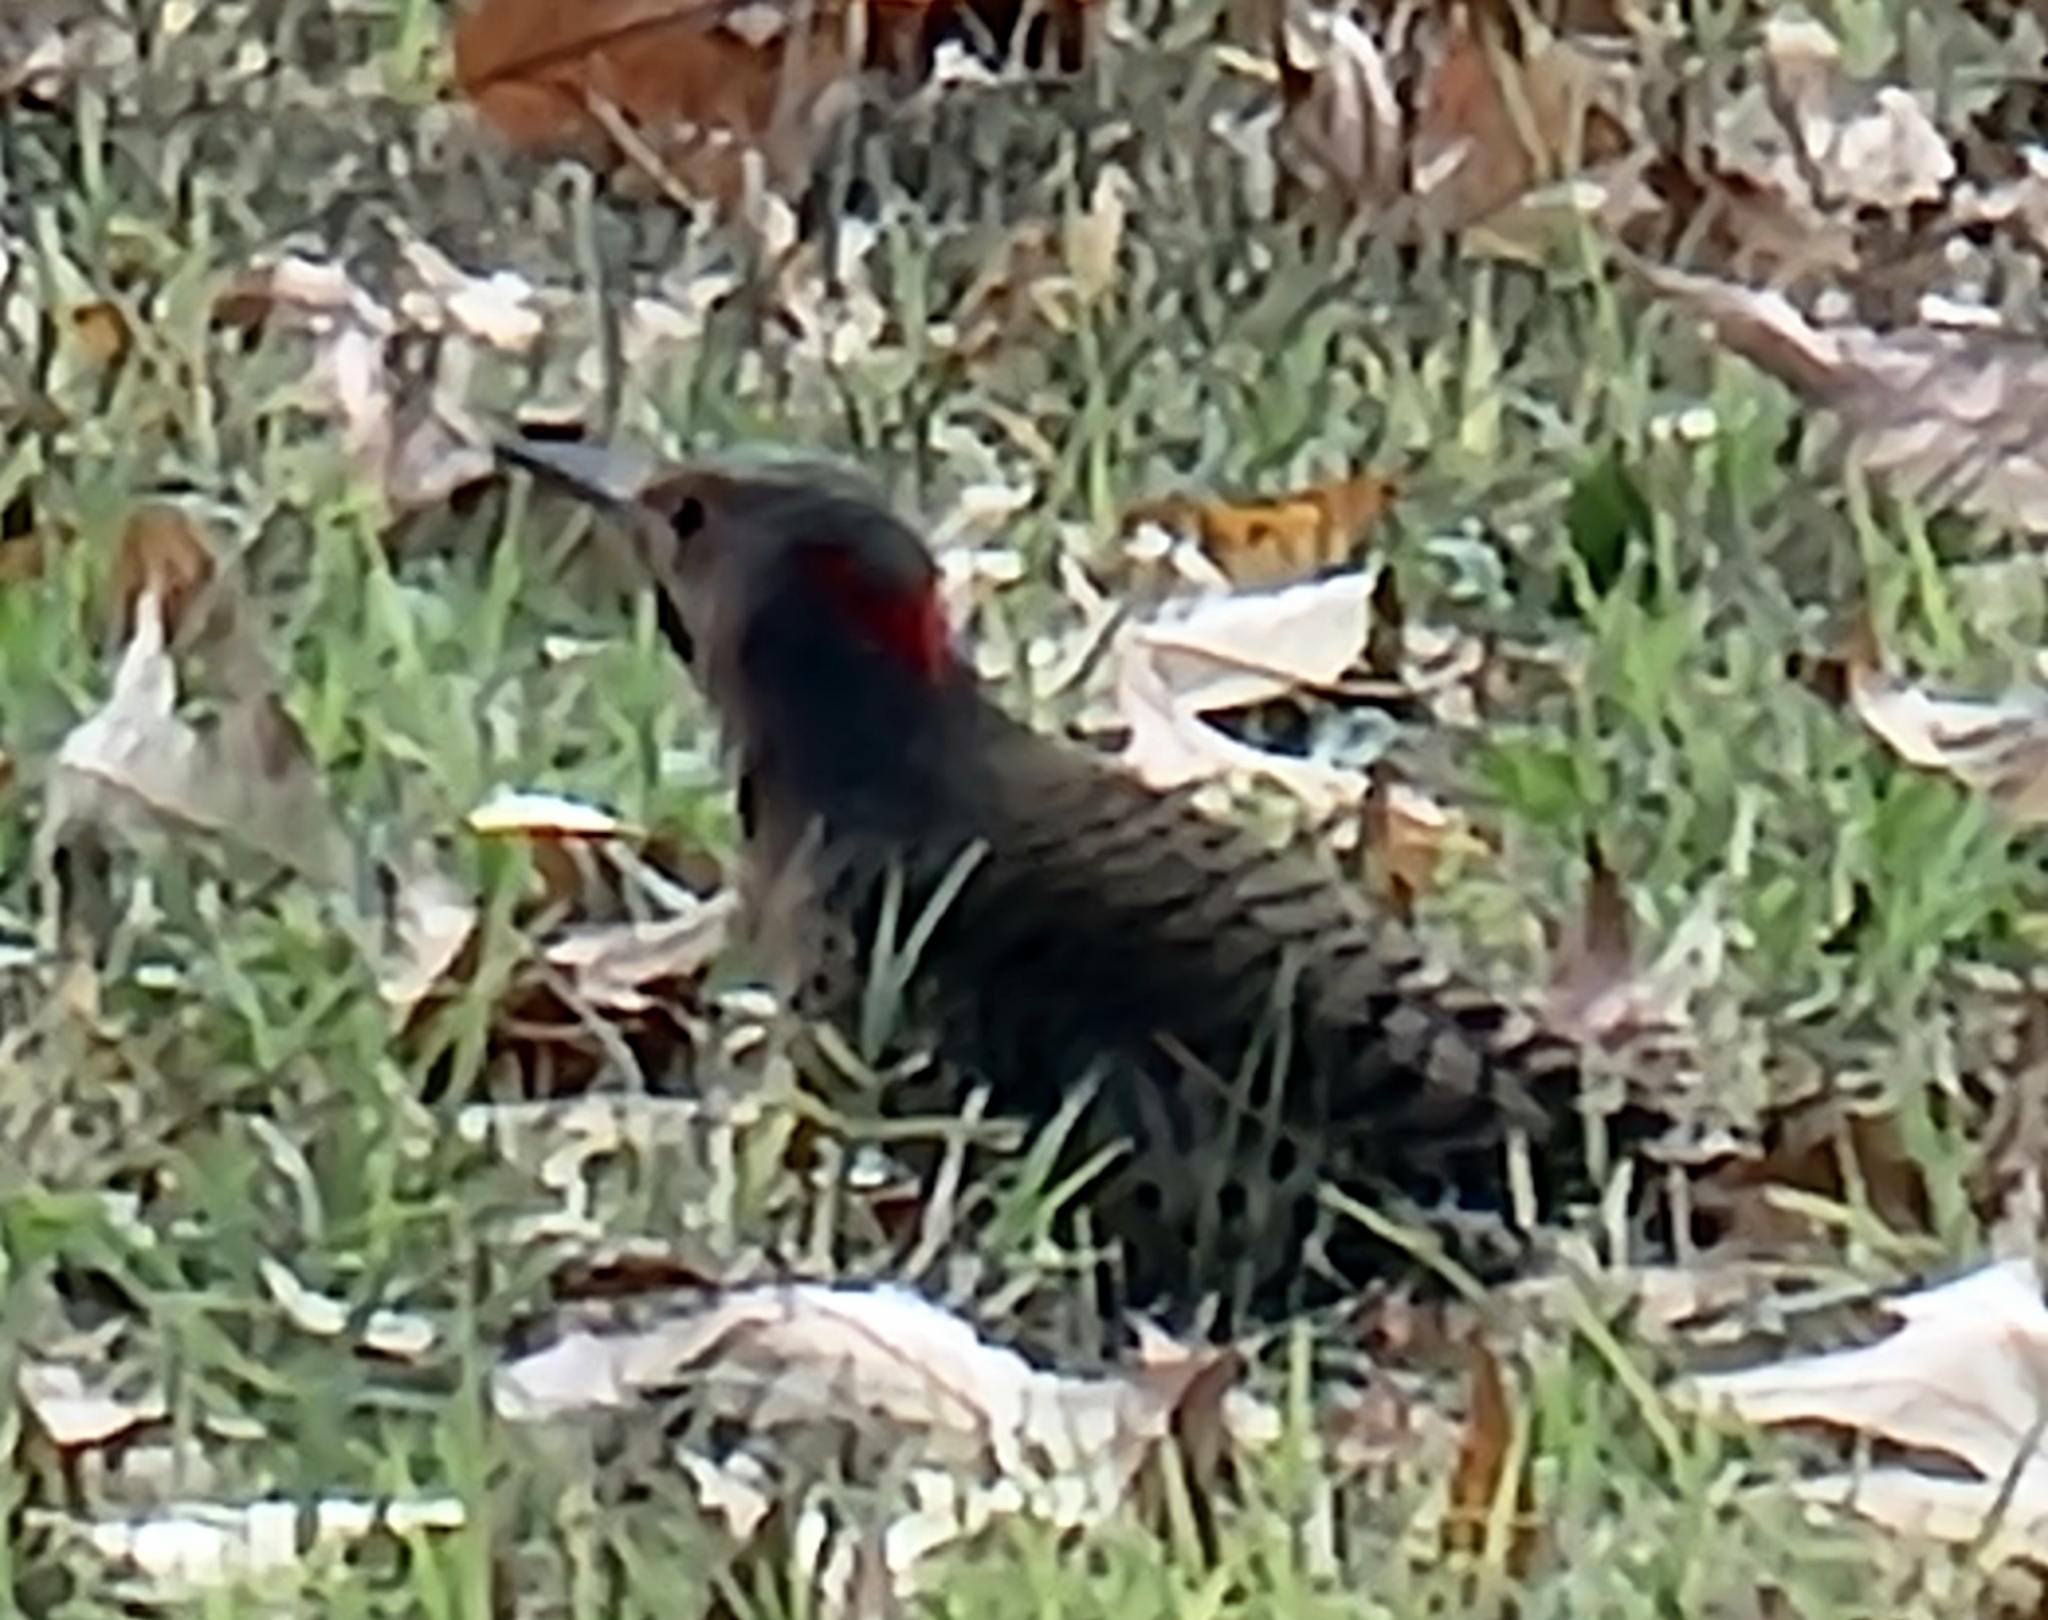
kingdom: Animalia
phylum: Chordata
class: Aves
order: Piciformes
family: Picidae
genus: Colaptes
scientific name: Colaptes auratus
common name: Northern flicker
